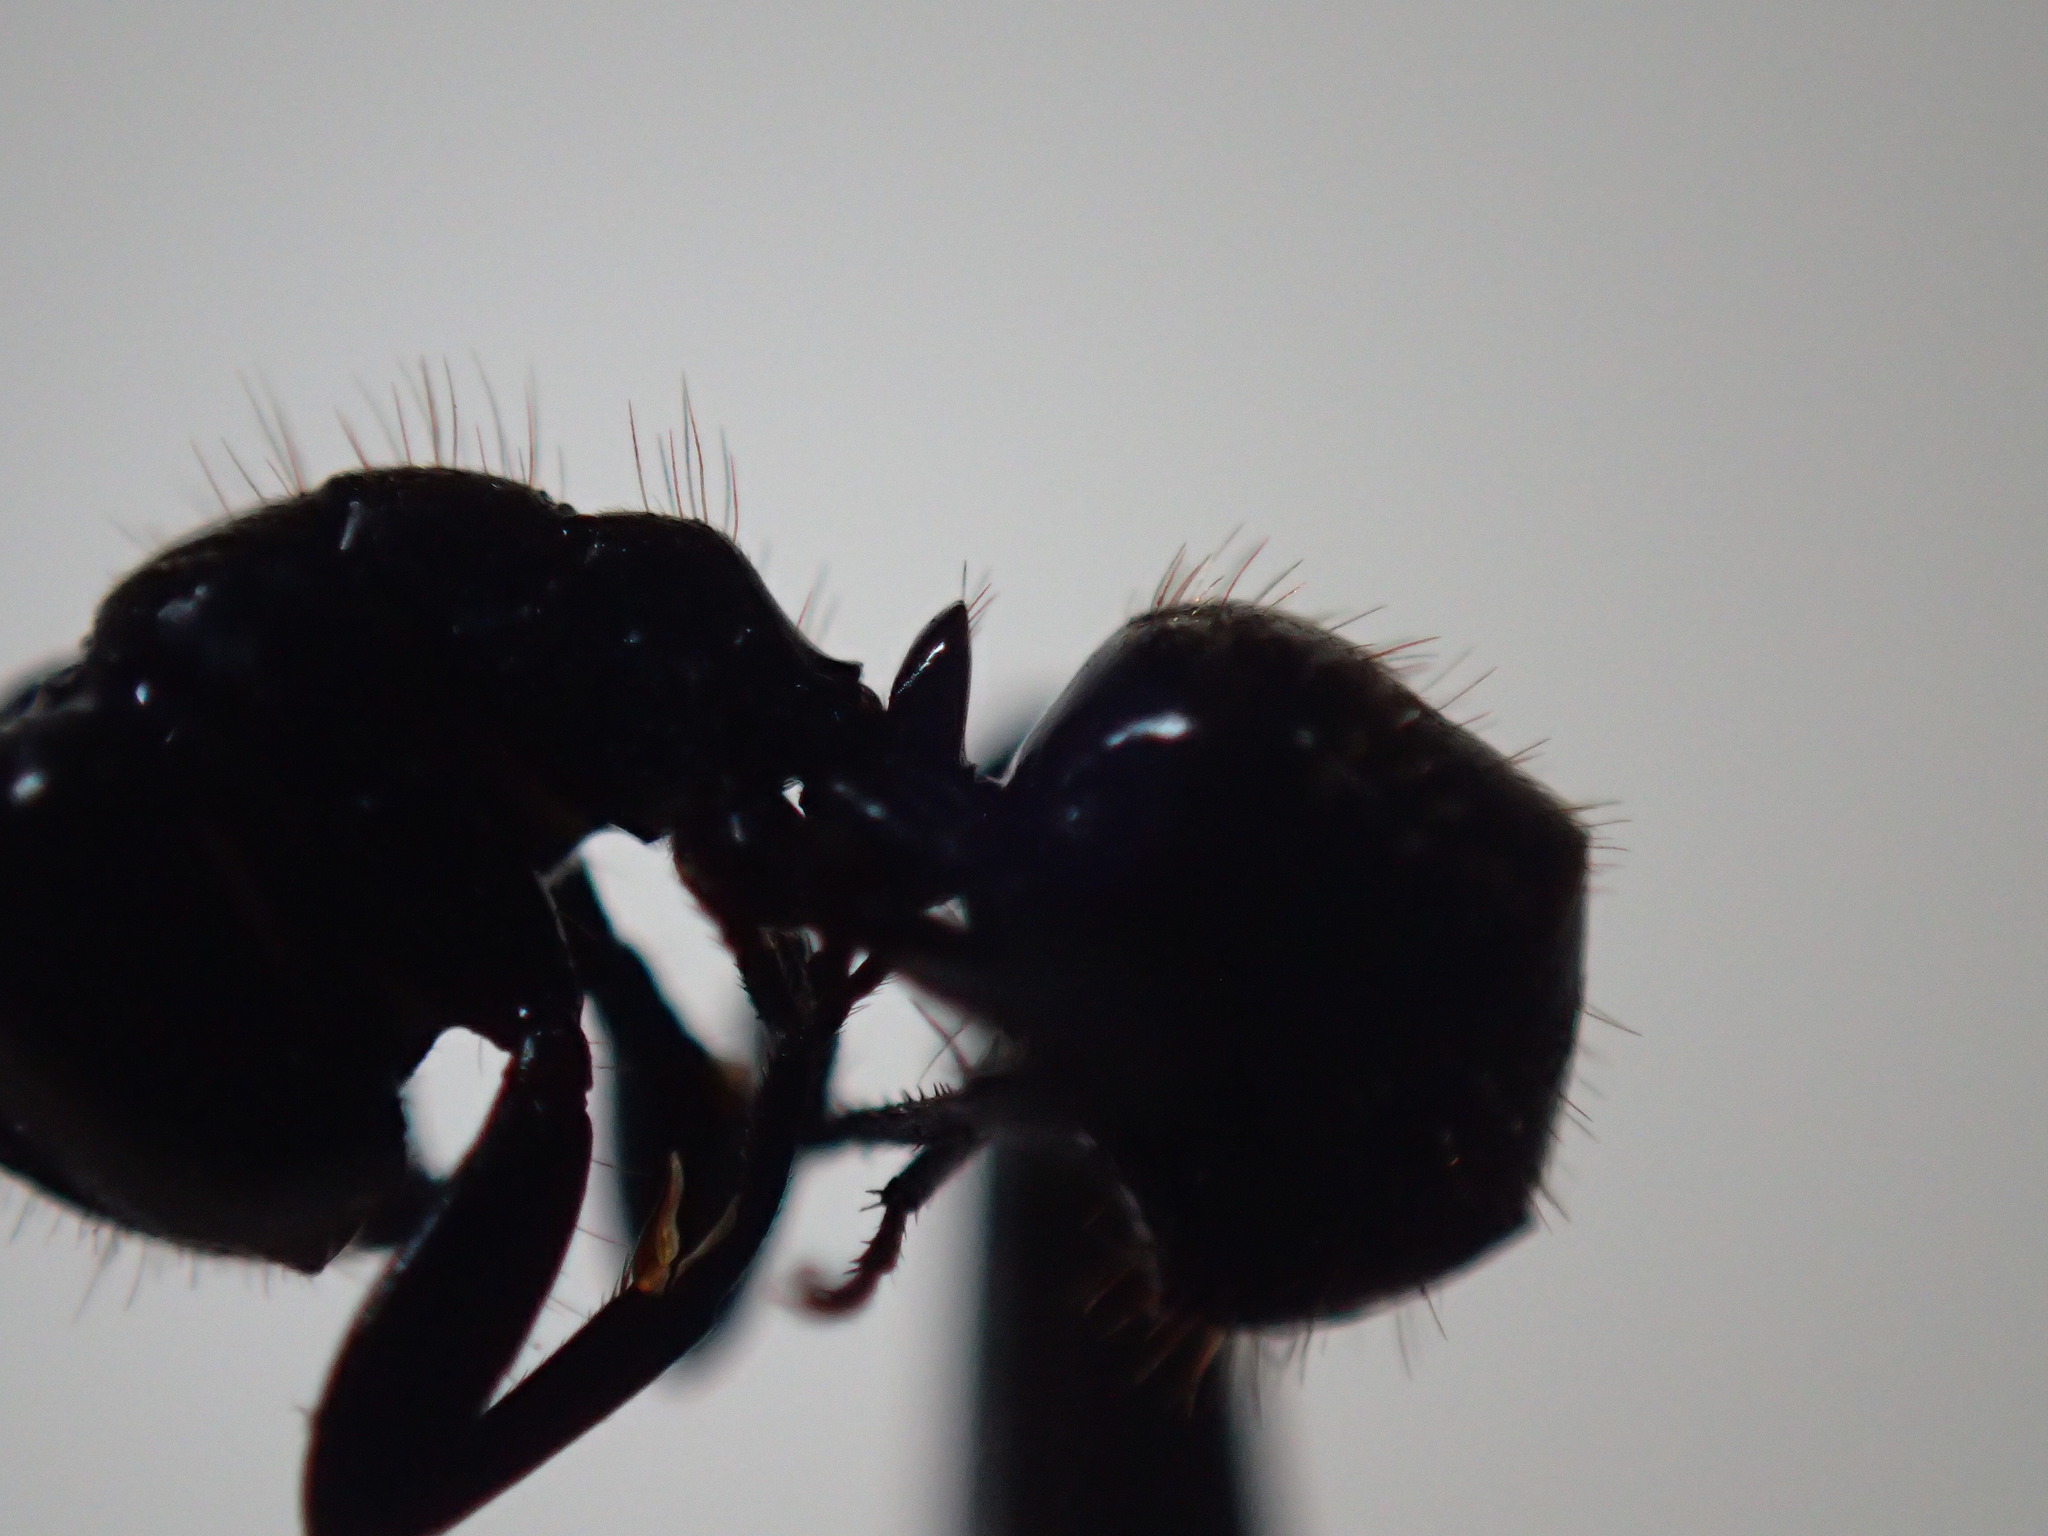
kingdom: Animalia
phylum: Arthropoda
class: Insecta
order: Hymenoptera
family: Formicidae
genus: Camponotus
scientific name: Camponotus arminius
